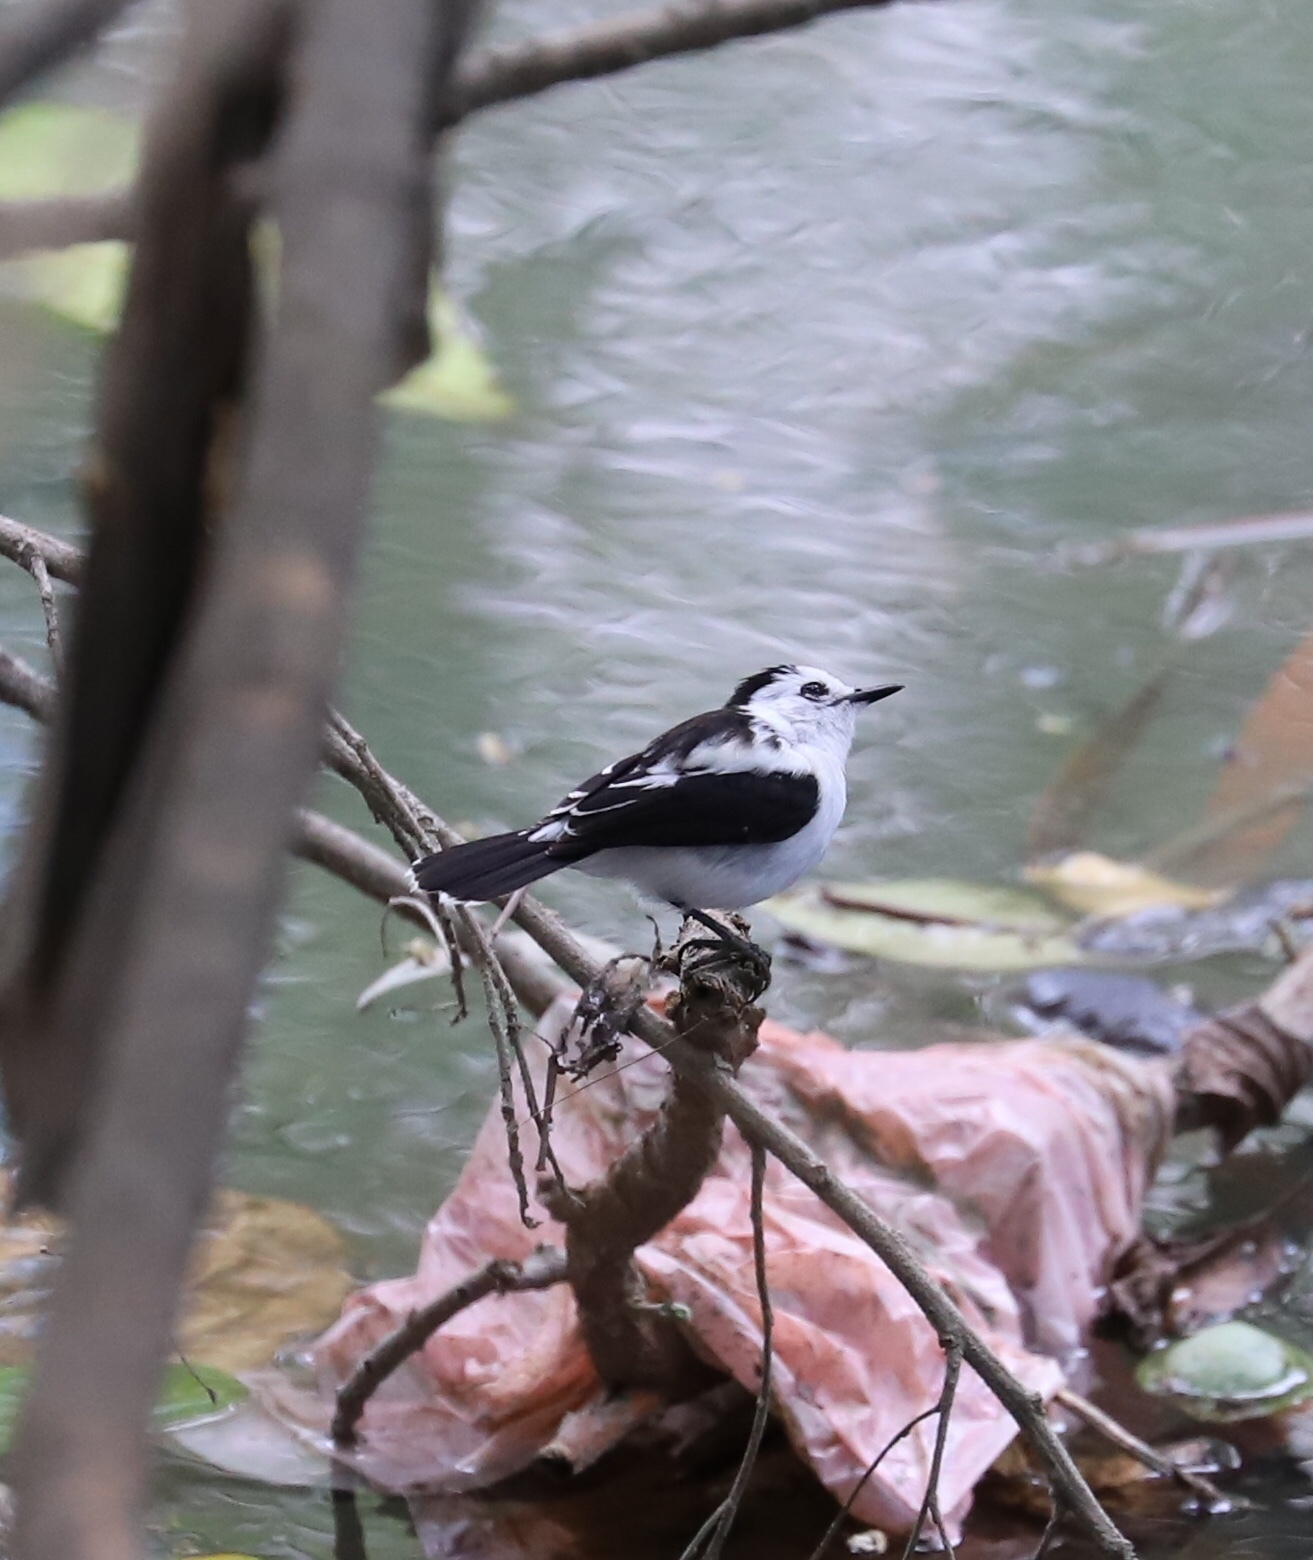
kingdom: Animalia
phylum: Chordata
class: Aves
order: Passeriformes
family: Tyrannidae
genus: Fluvicola
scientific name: Fluvicola pica
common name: Pied water-tyrant
